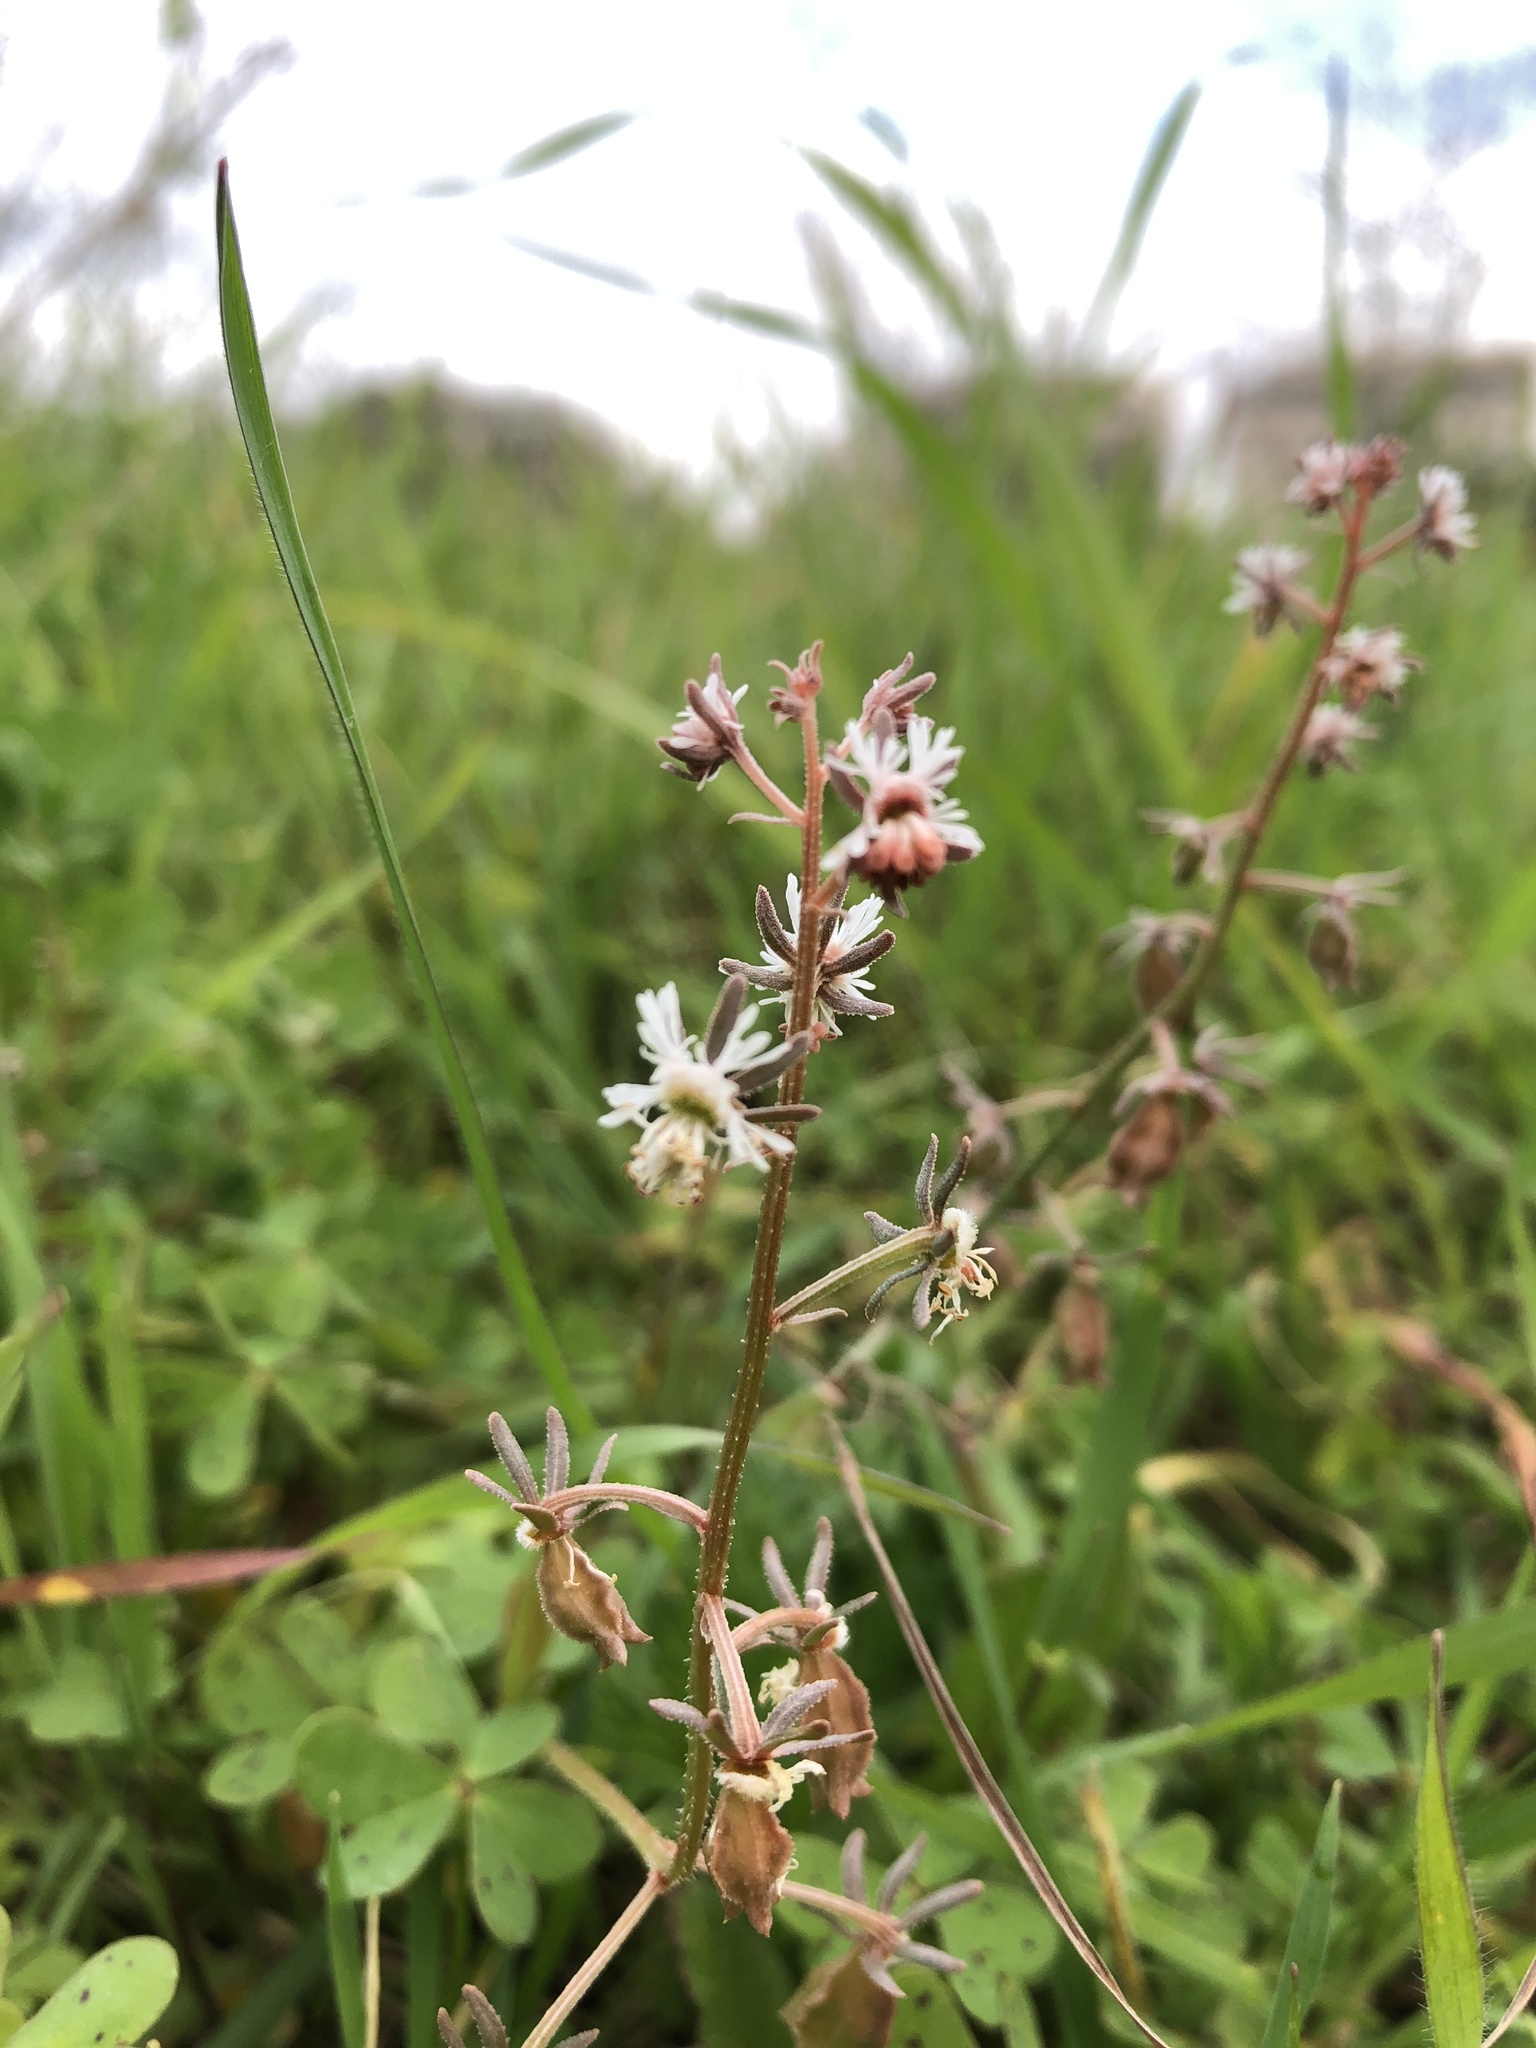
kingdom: Plantae
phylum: Tracheophyta
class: Magnoliopsida
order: Brassicales
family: Resedaceae
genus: Reseda
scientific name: Reseda orientalis
